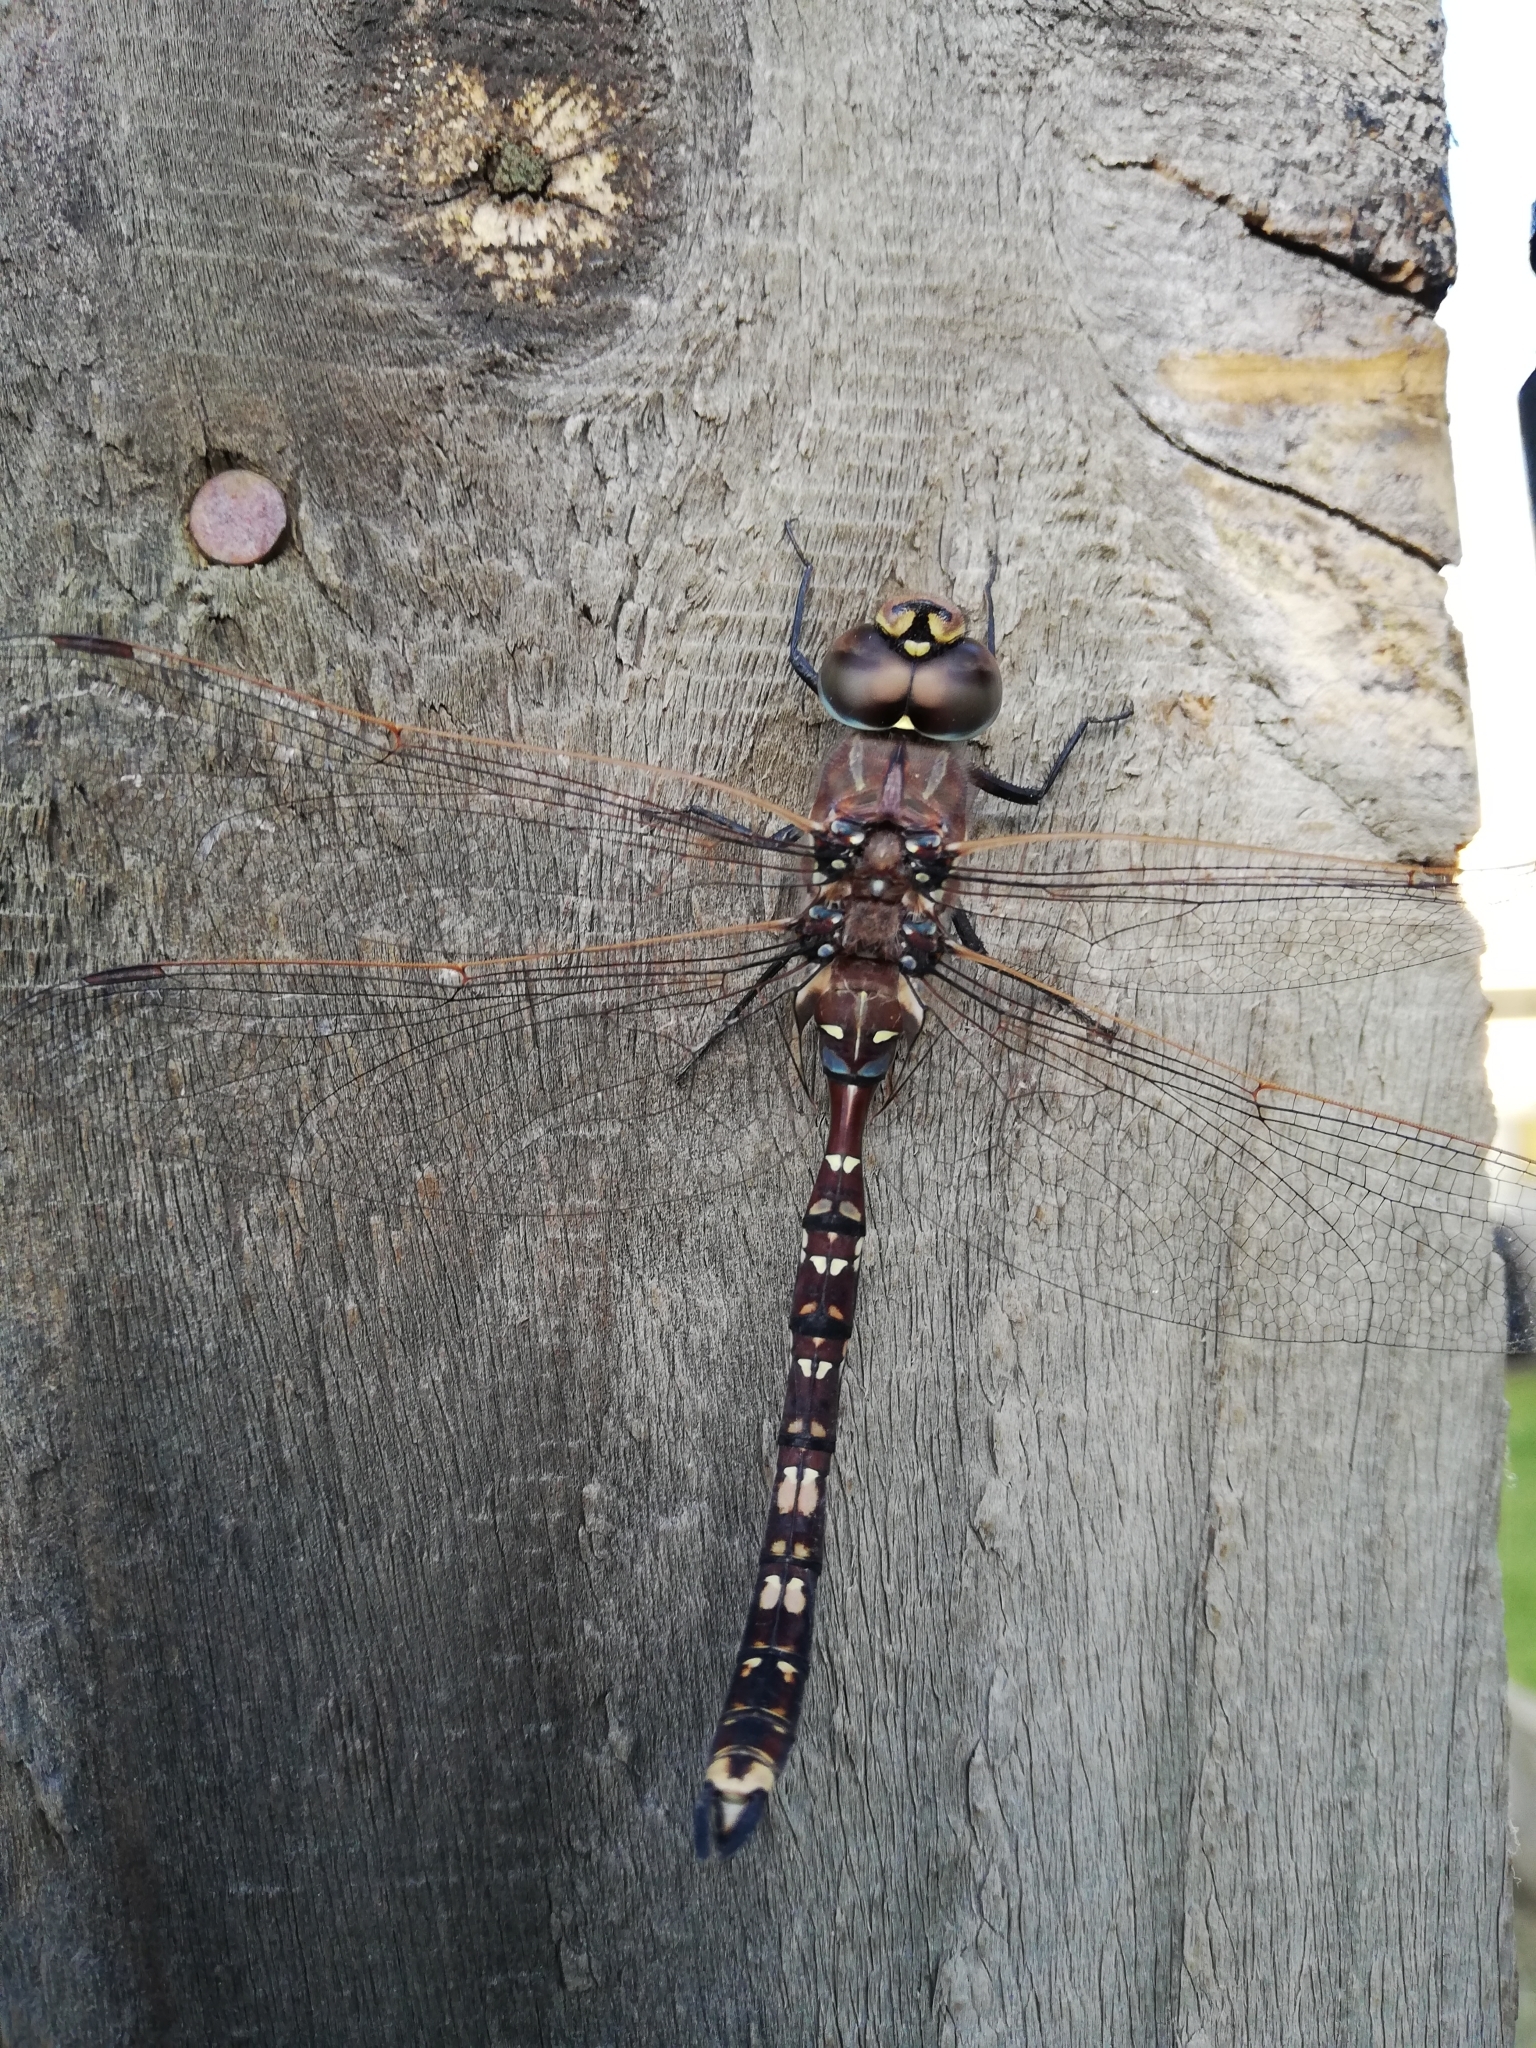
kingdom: Animalia
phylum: Arthropoda
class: Insecta
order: Odonata
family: Aeshnidae
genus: Aeshna
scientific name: Aeshna brevistyla
